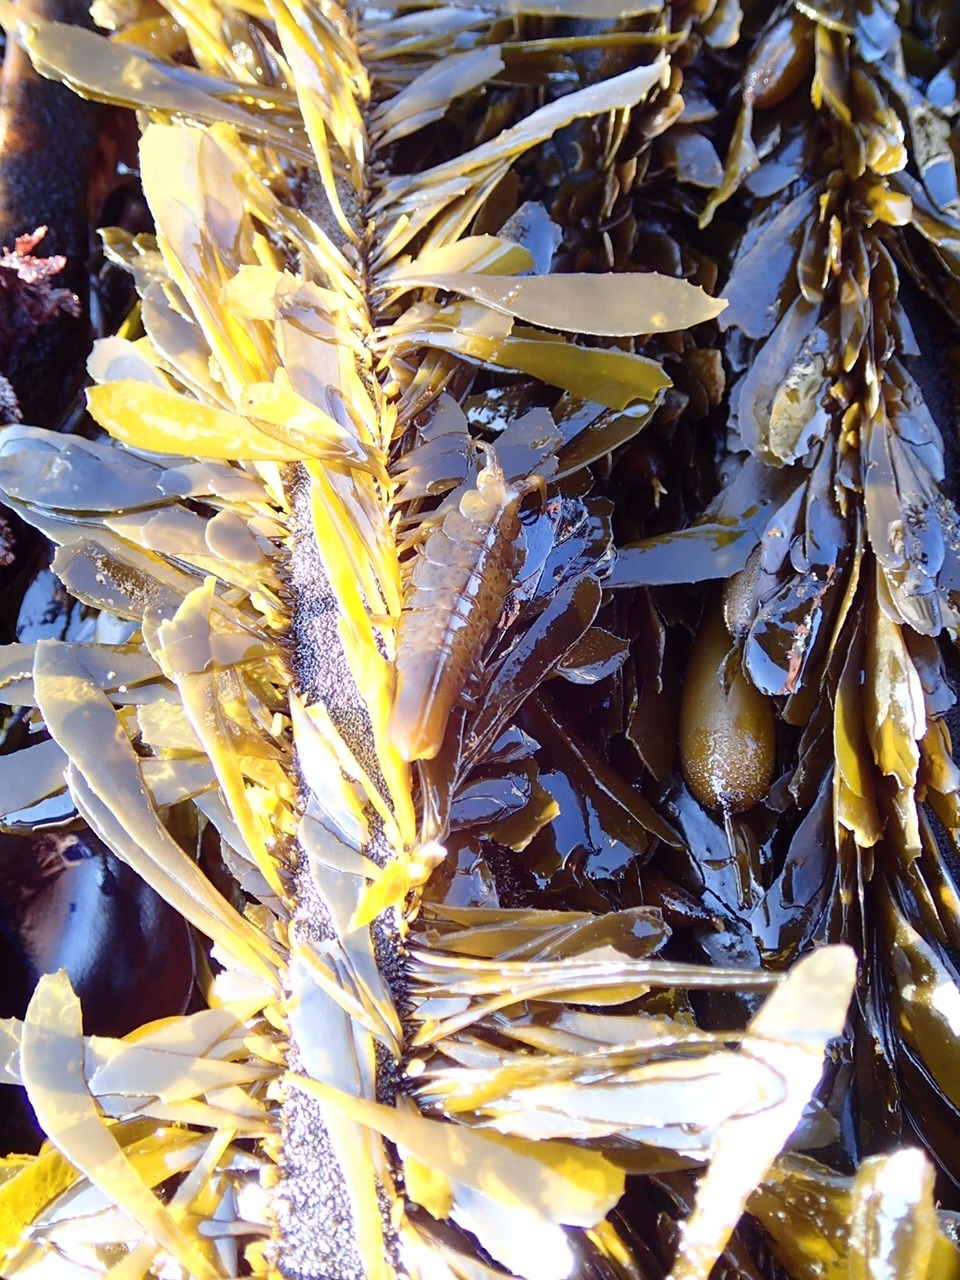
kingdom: Animalia
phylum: Arthropoda
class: Malacostraca
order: Isopoda
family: Idoteidae
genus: Pentidotea
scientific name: Pentidotea stenops
